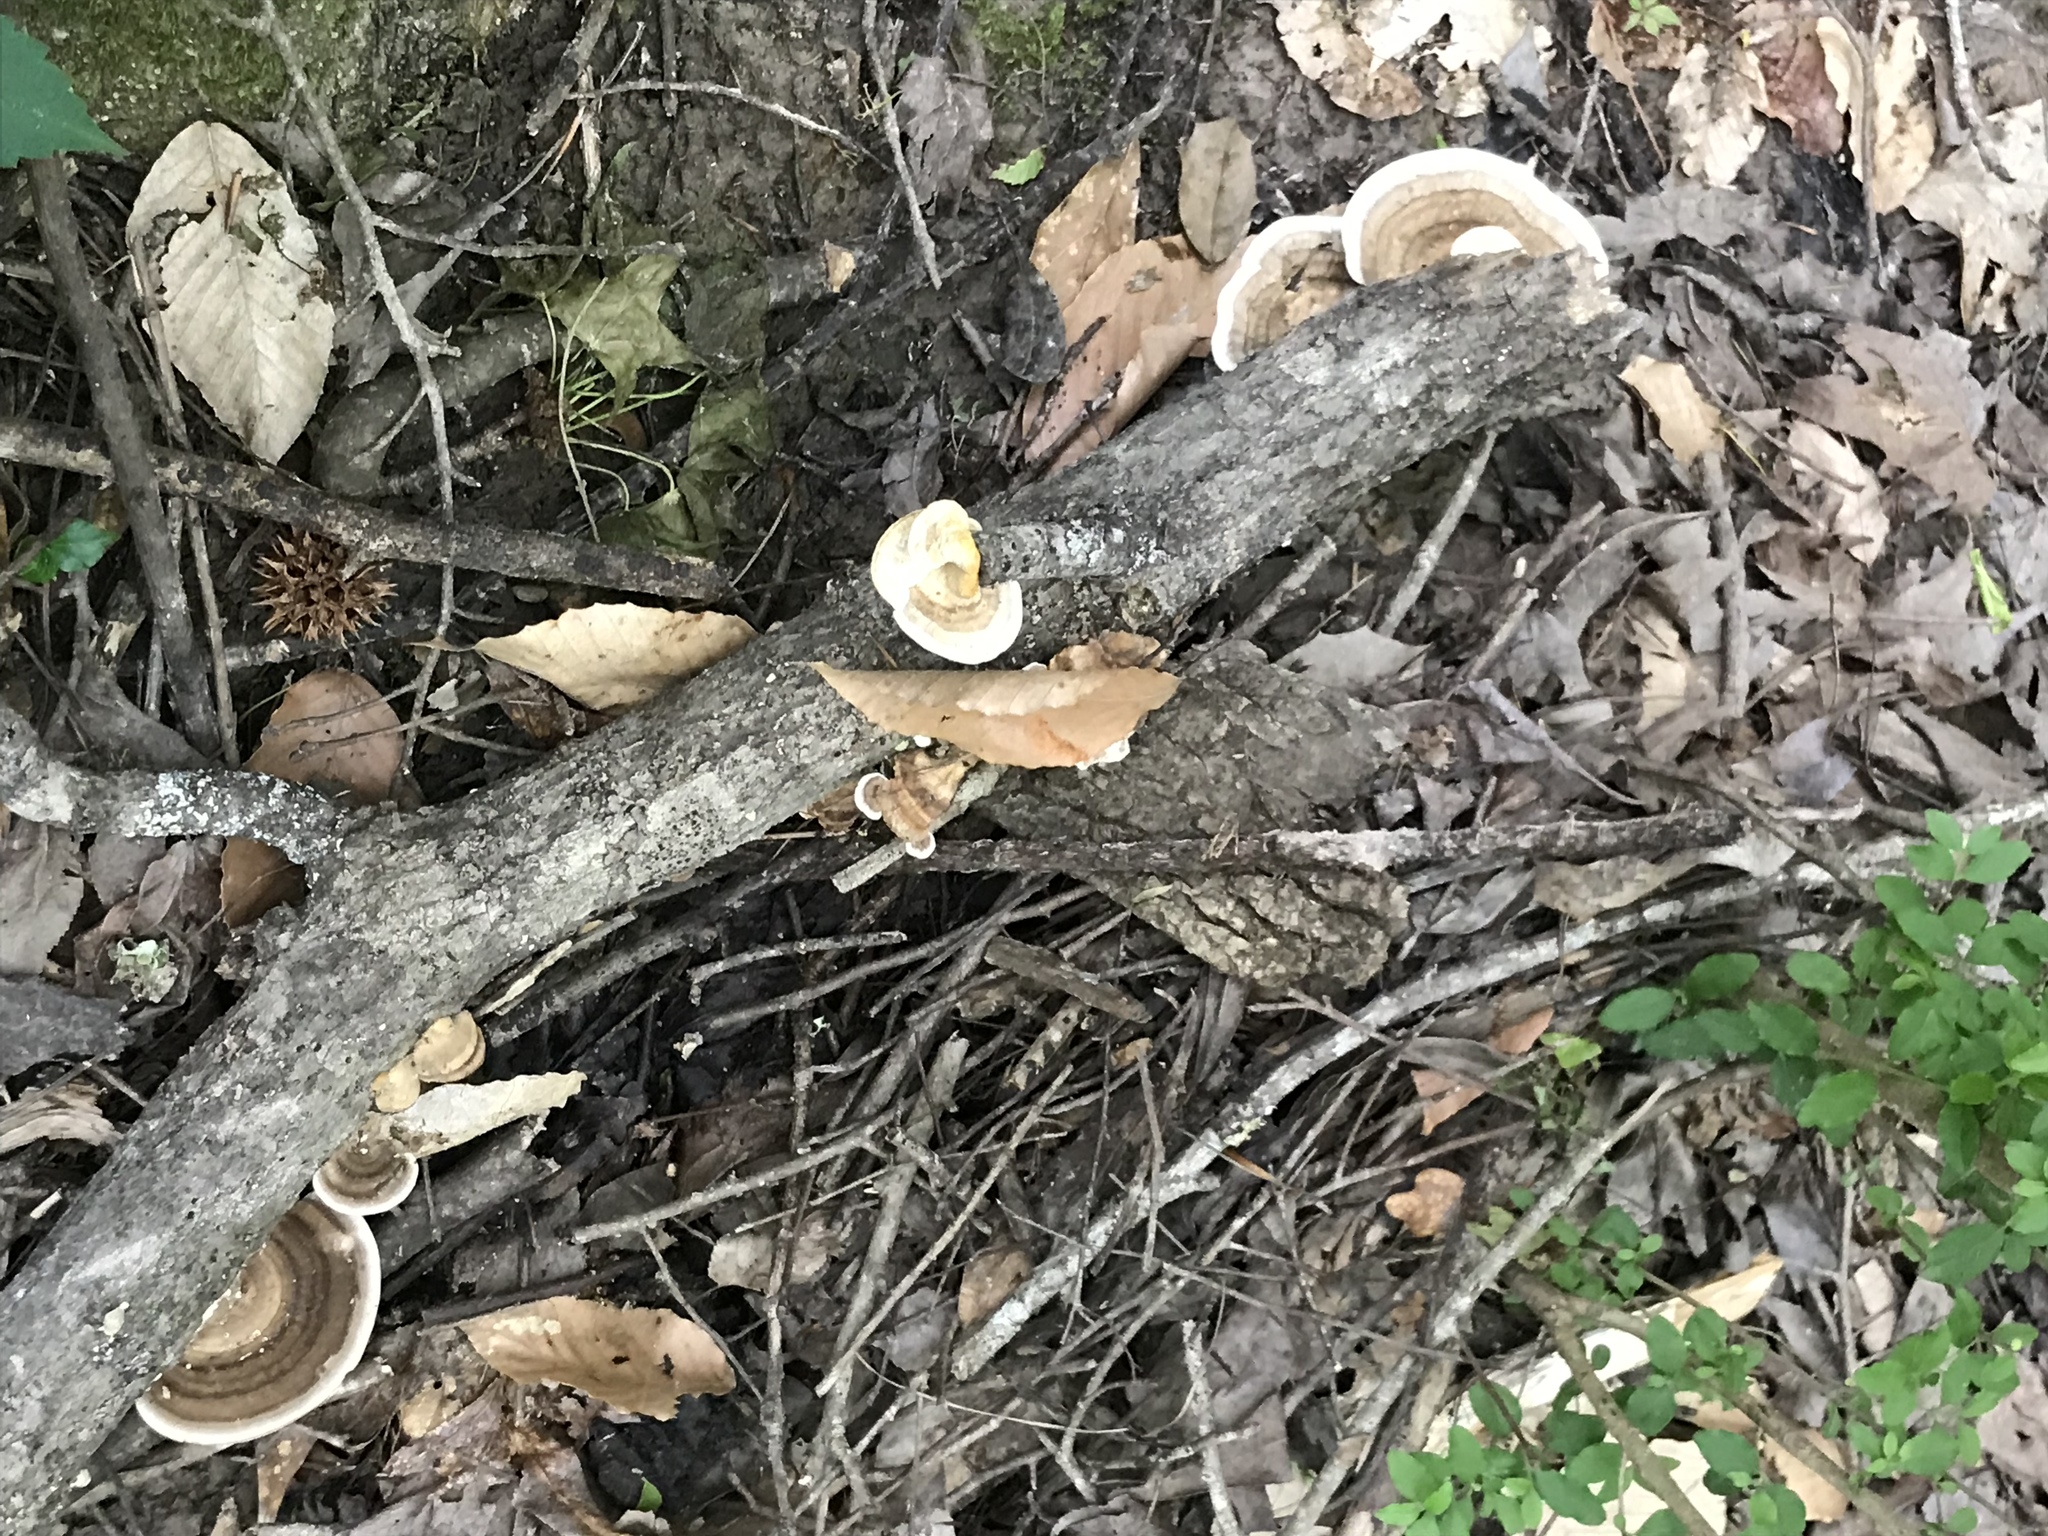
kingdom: Fungi
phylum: Basidiomycota
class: Agaricomycetes
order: Polyporales
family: Polyporaceae
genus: Ganoderma
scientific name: Ganoderma lobatum
